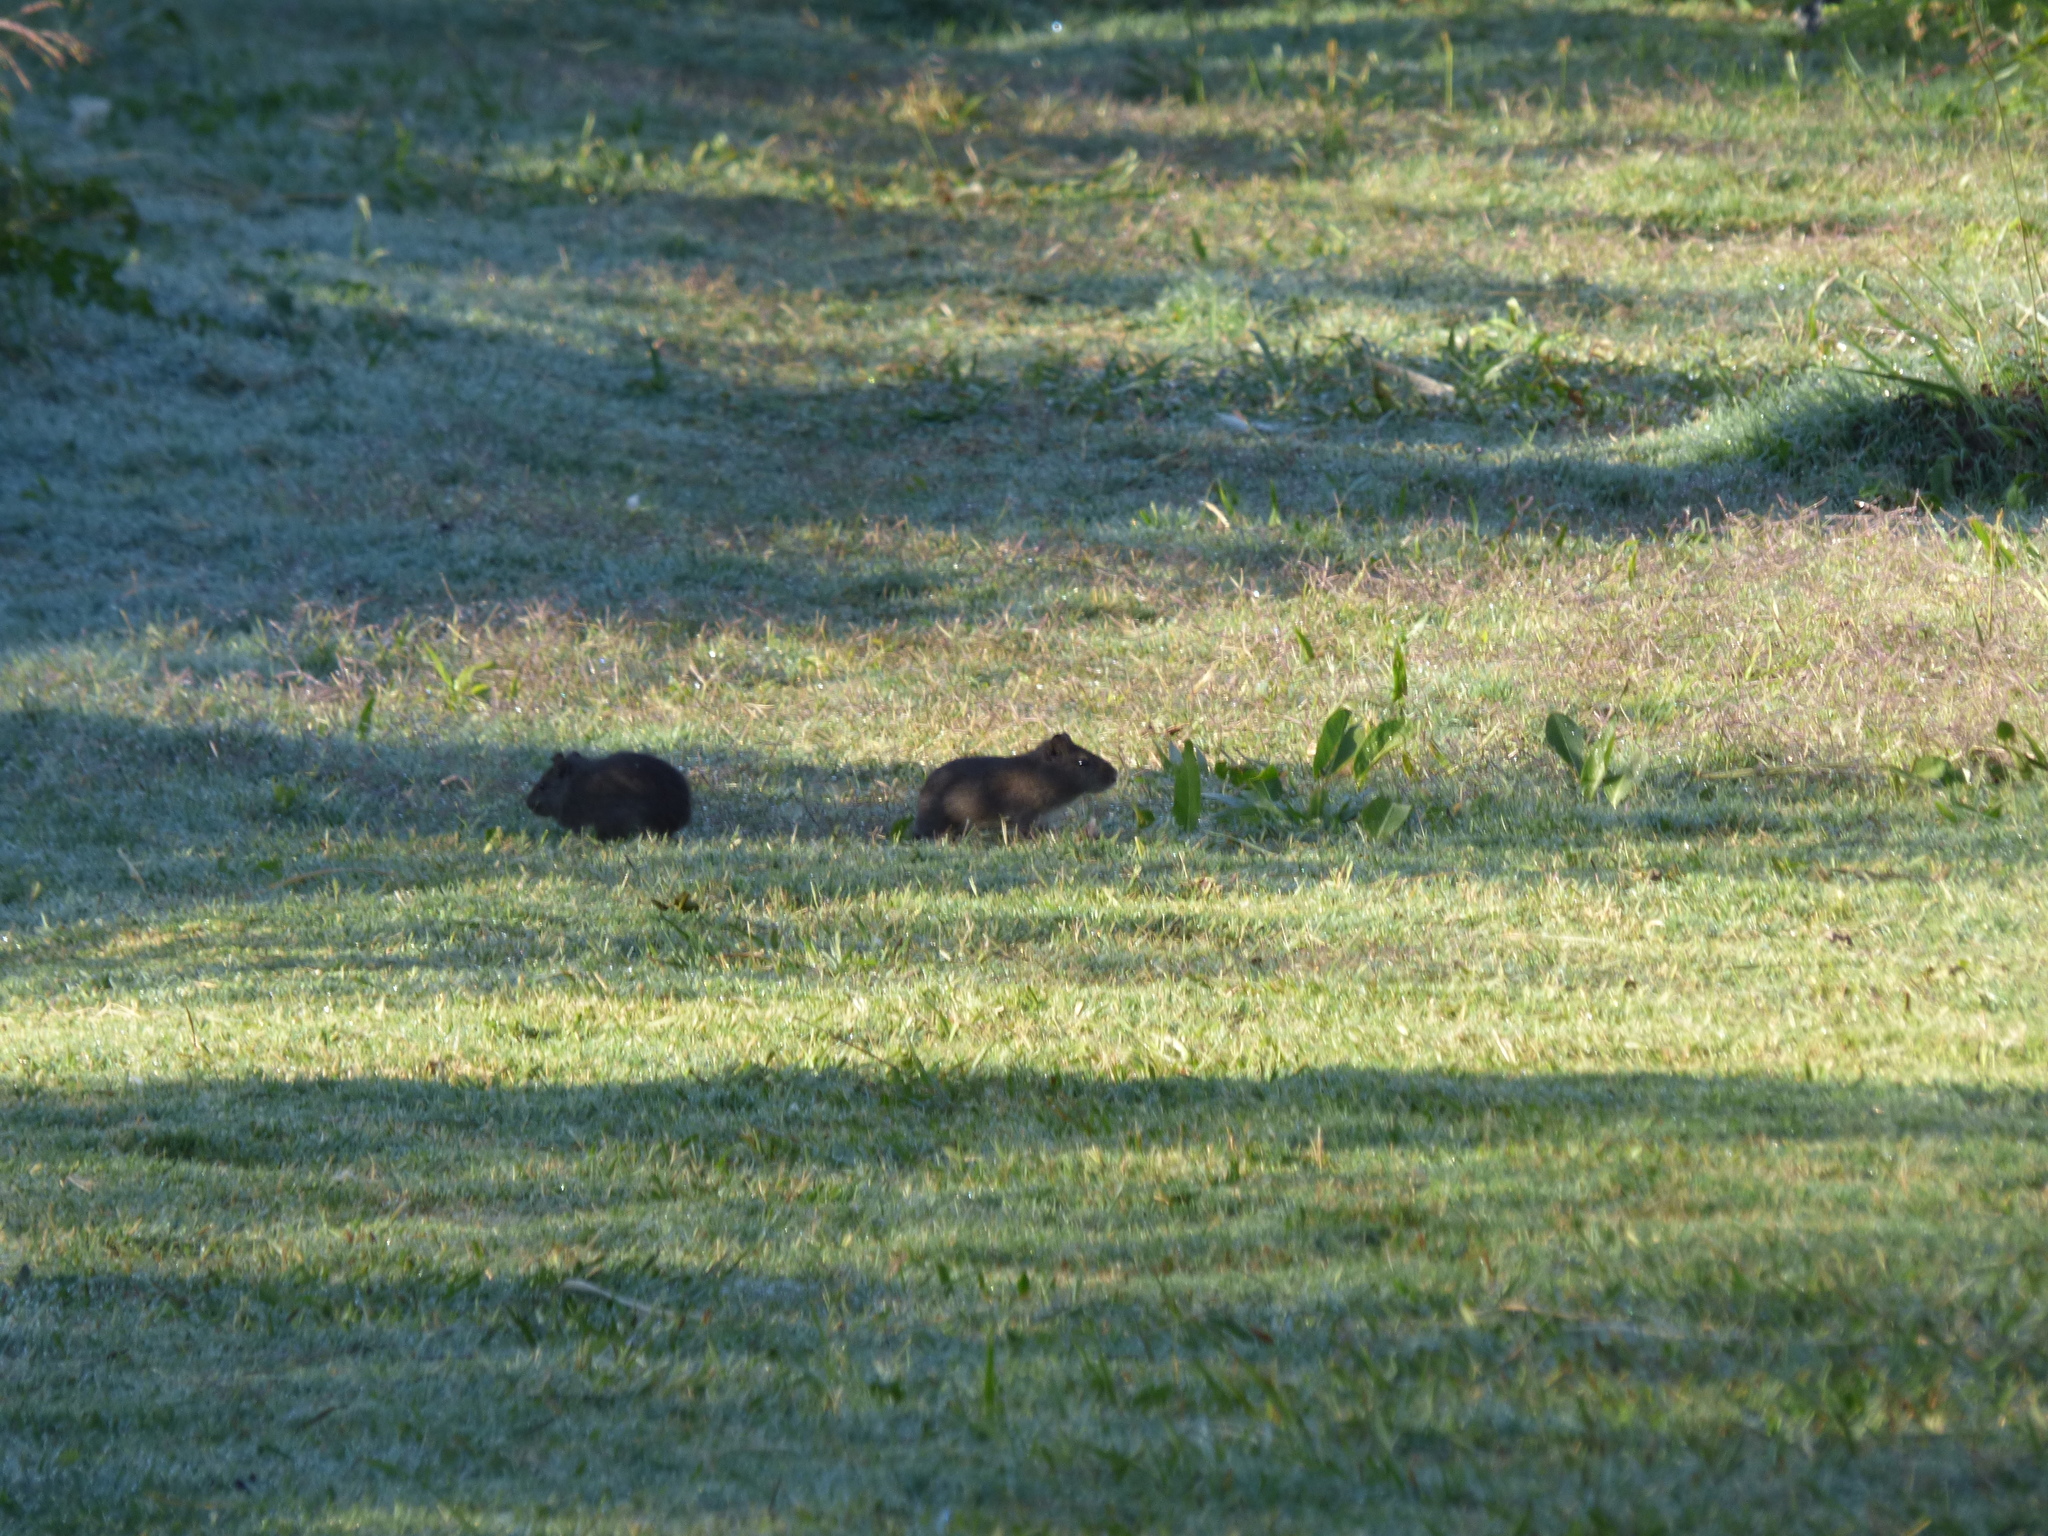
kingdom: Animalia
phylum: Chordata
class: Mammalia
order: Rodentia
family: Caviidae
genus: Cavia
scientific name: Cavia aperea
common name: Brazilian guinea pig
